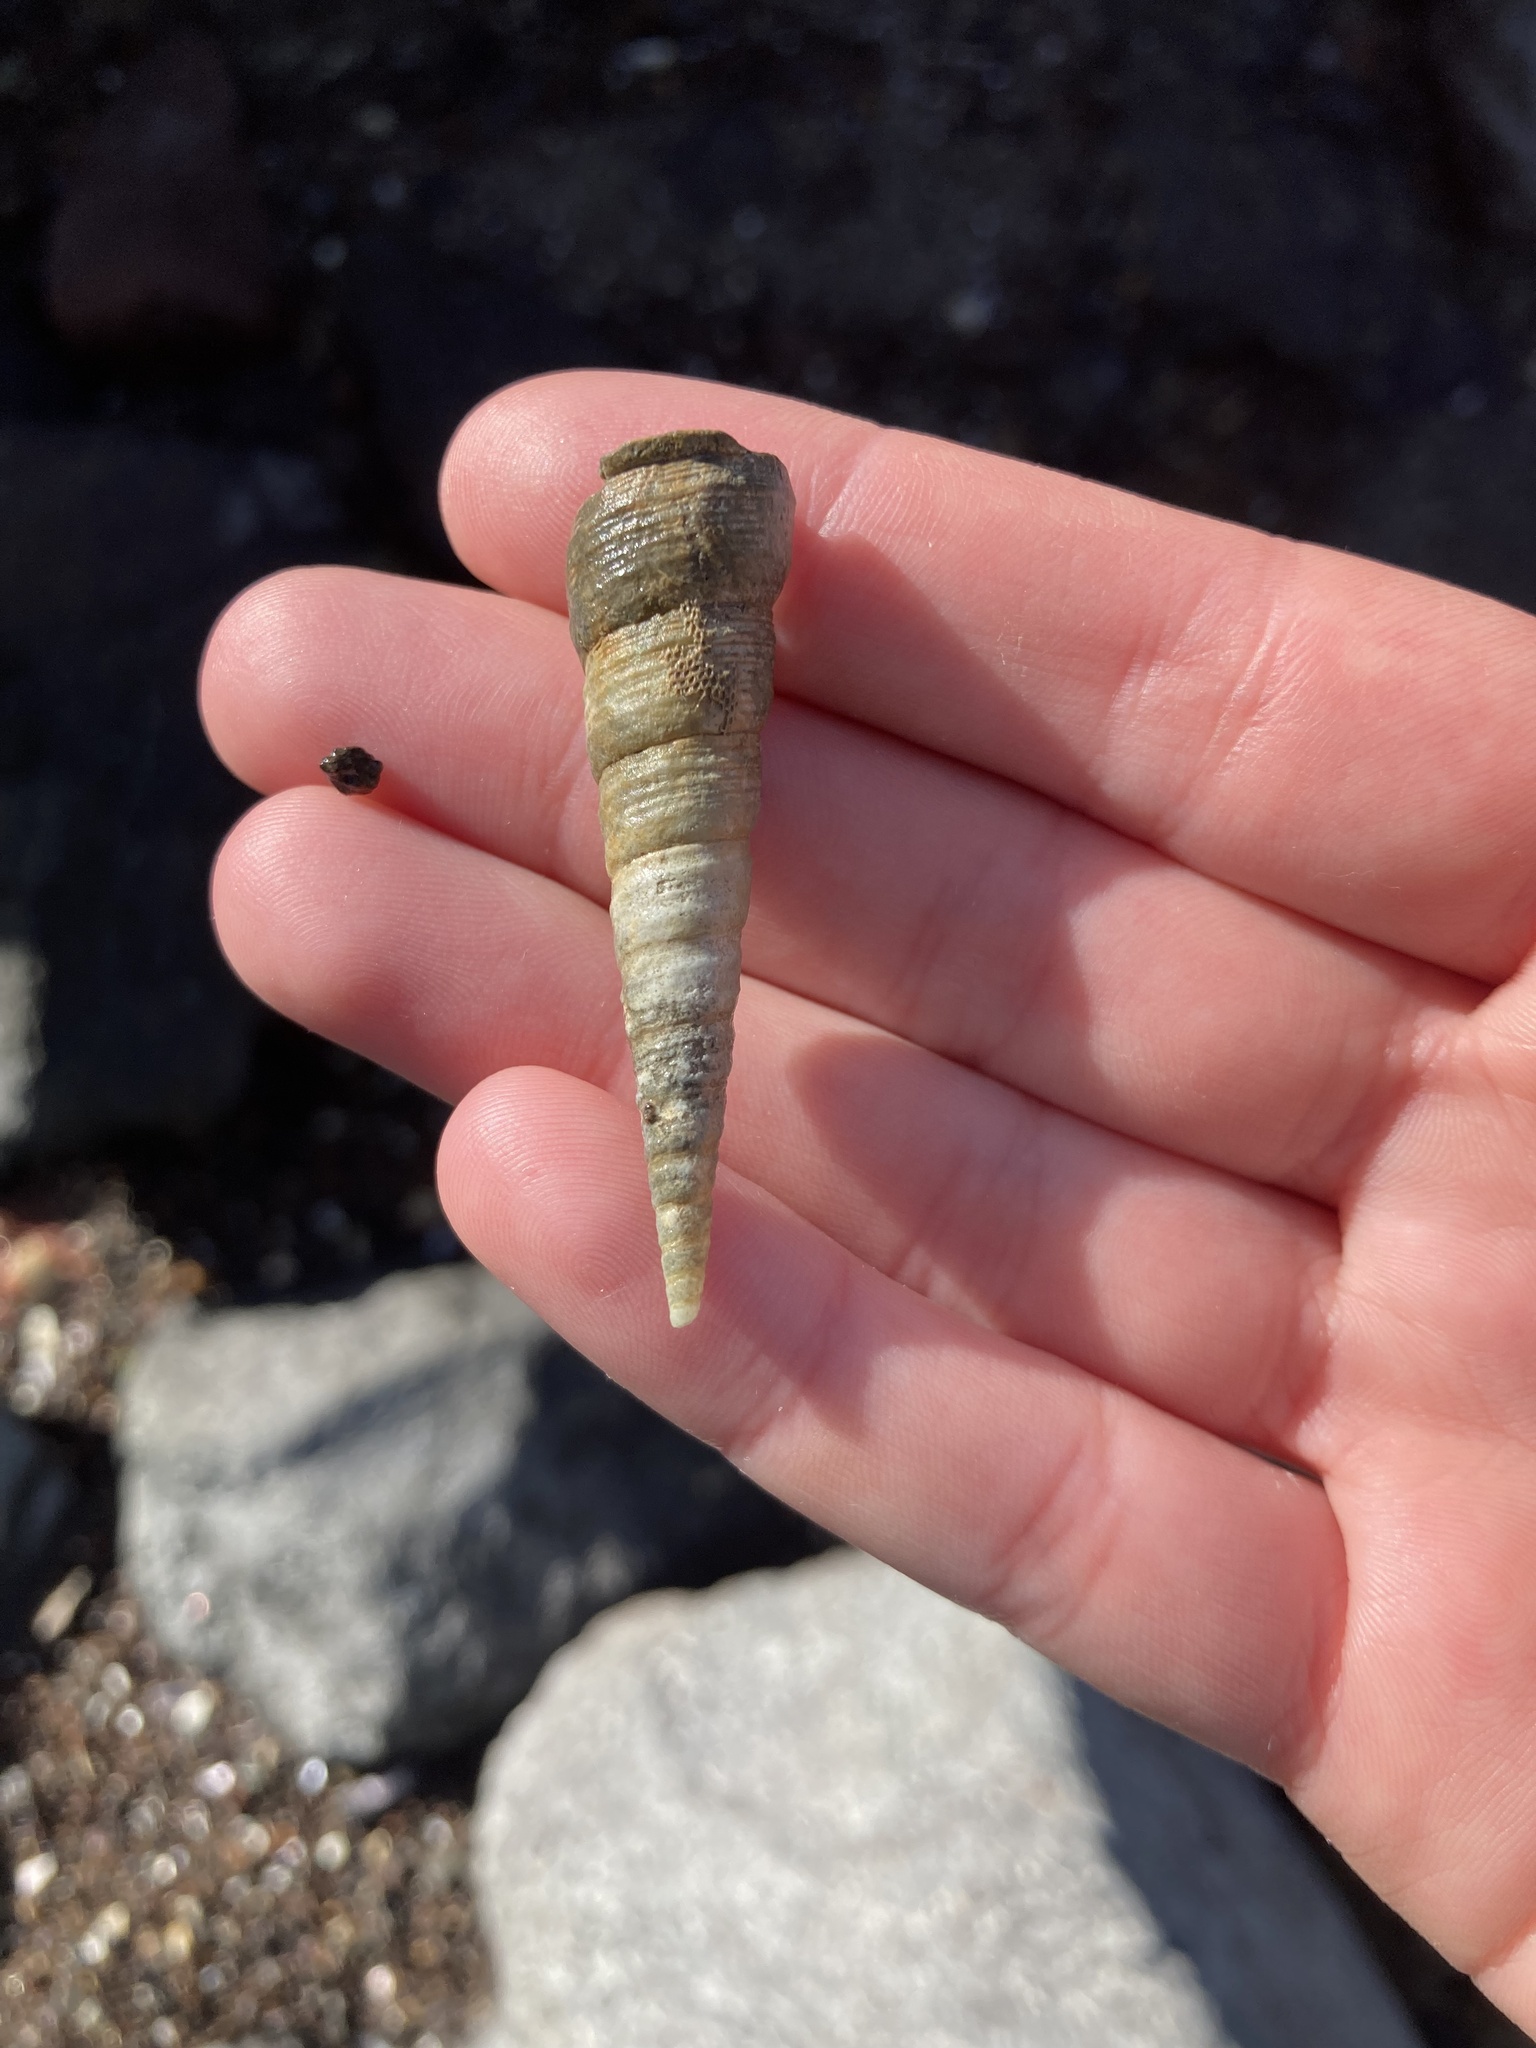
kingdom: Animalia
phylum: Mollusca
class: Gastropoda
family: Turritellidae
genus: Maoricolpus
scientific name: Maoricolpus roseus
